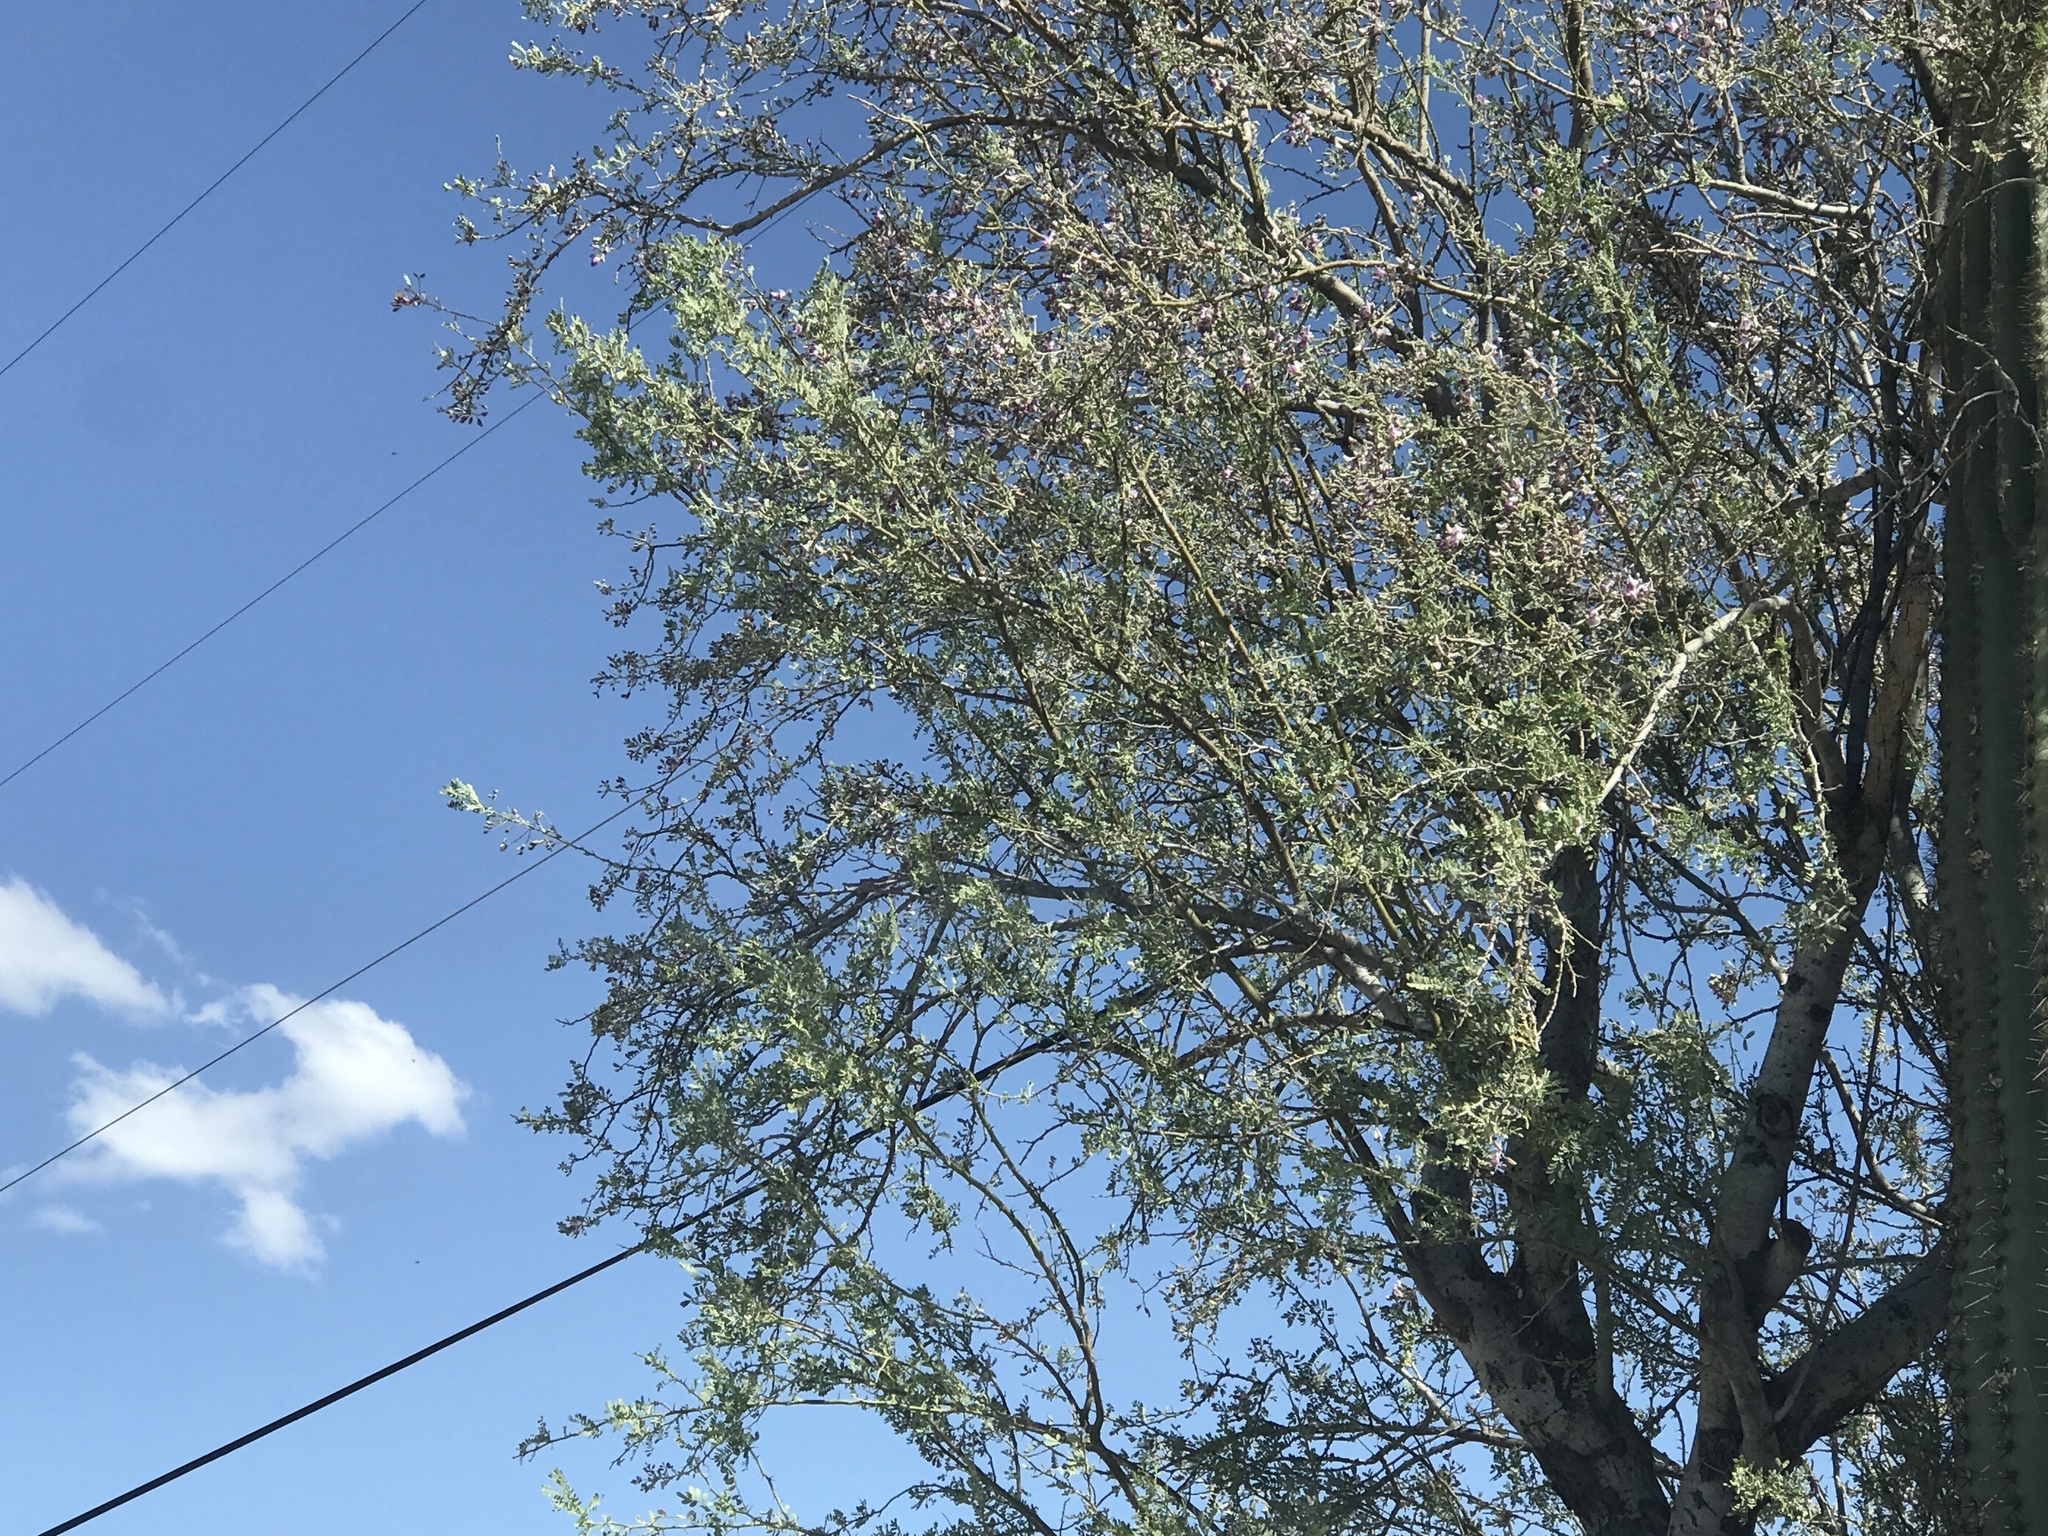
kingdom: Plantae
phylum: Tracheophyta
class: Magnoliopsida
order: Fabales
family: Fabaceae
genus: Olneya
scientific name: Olneya tesota
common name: Desert ironwood
